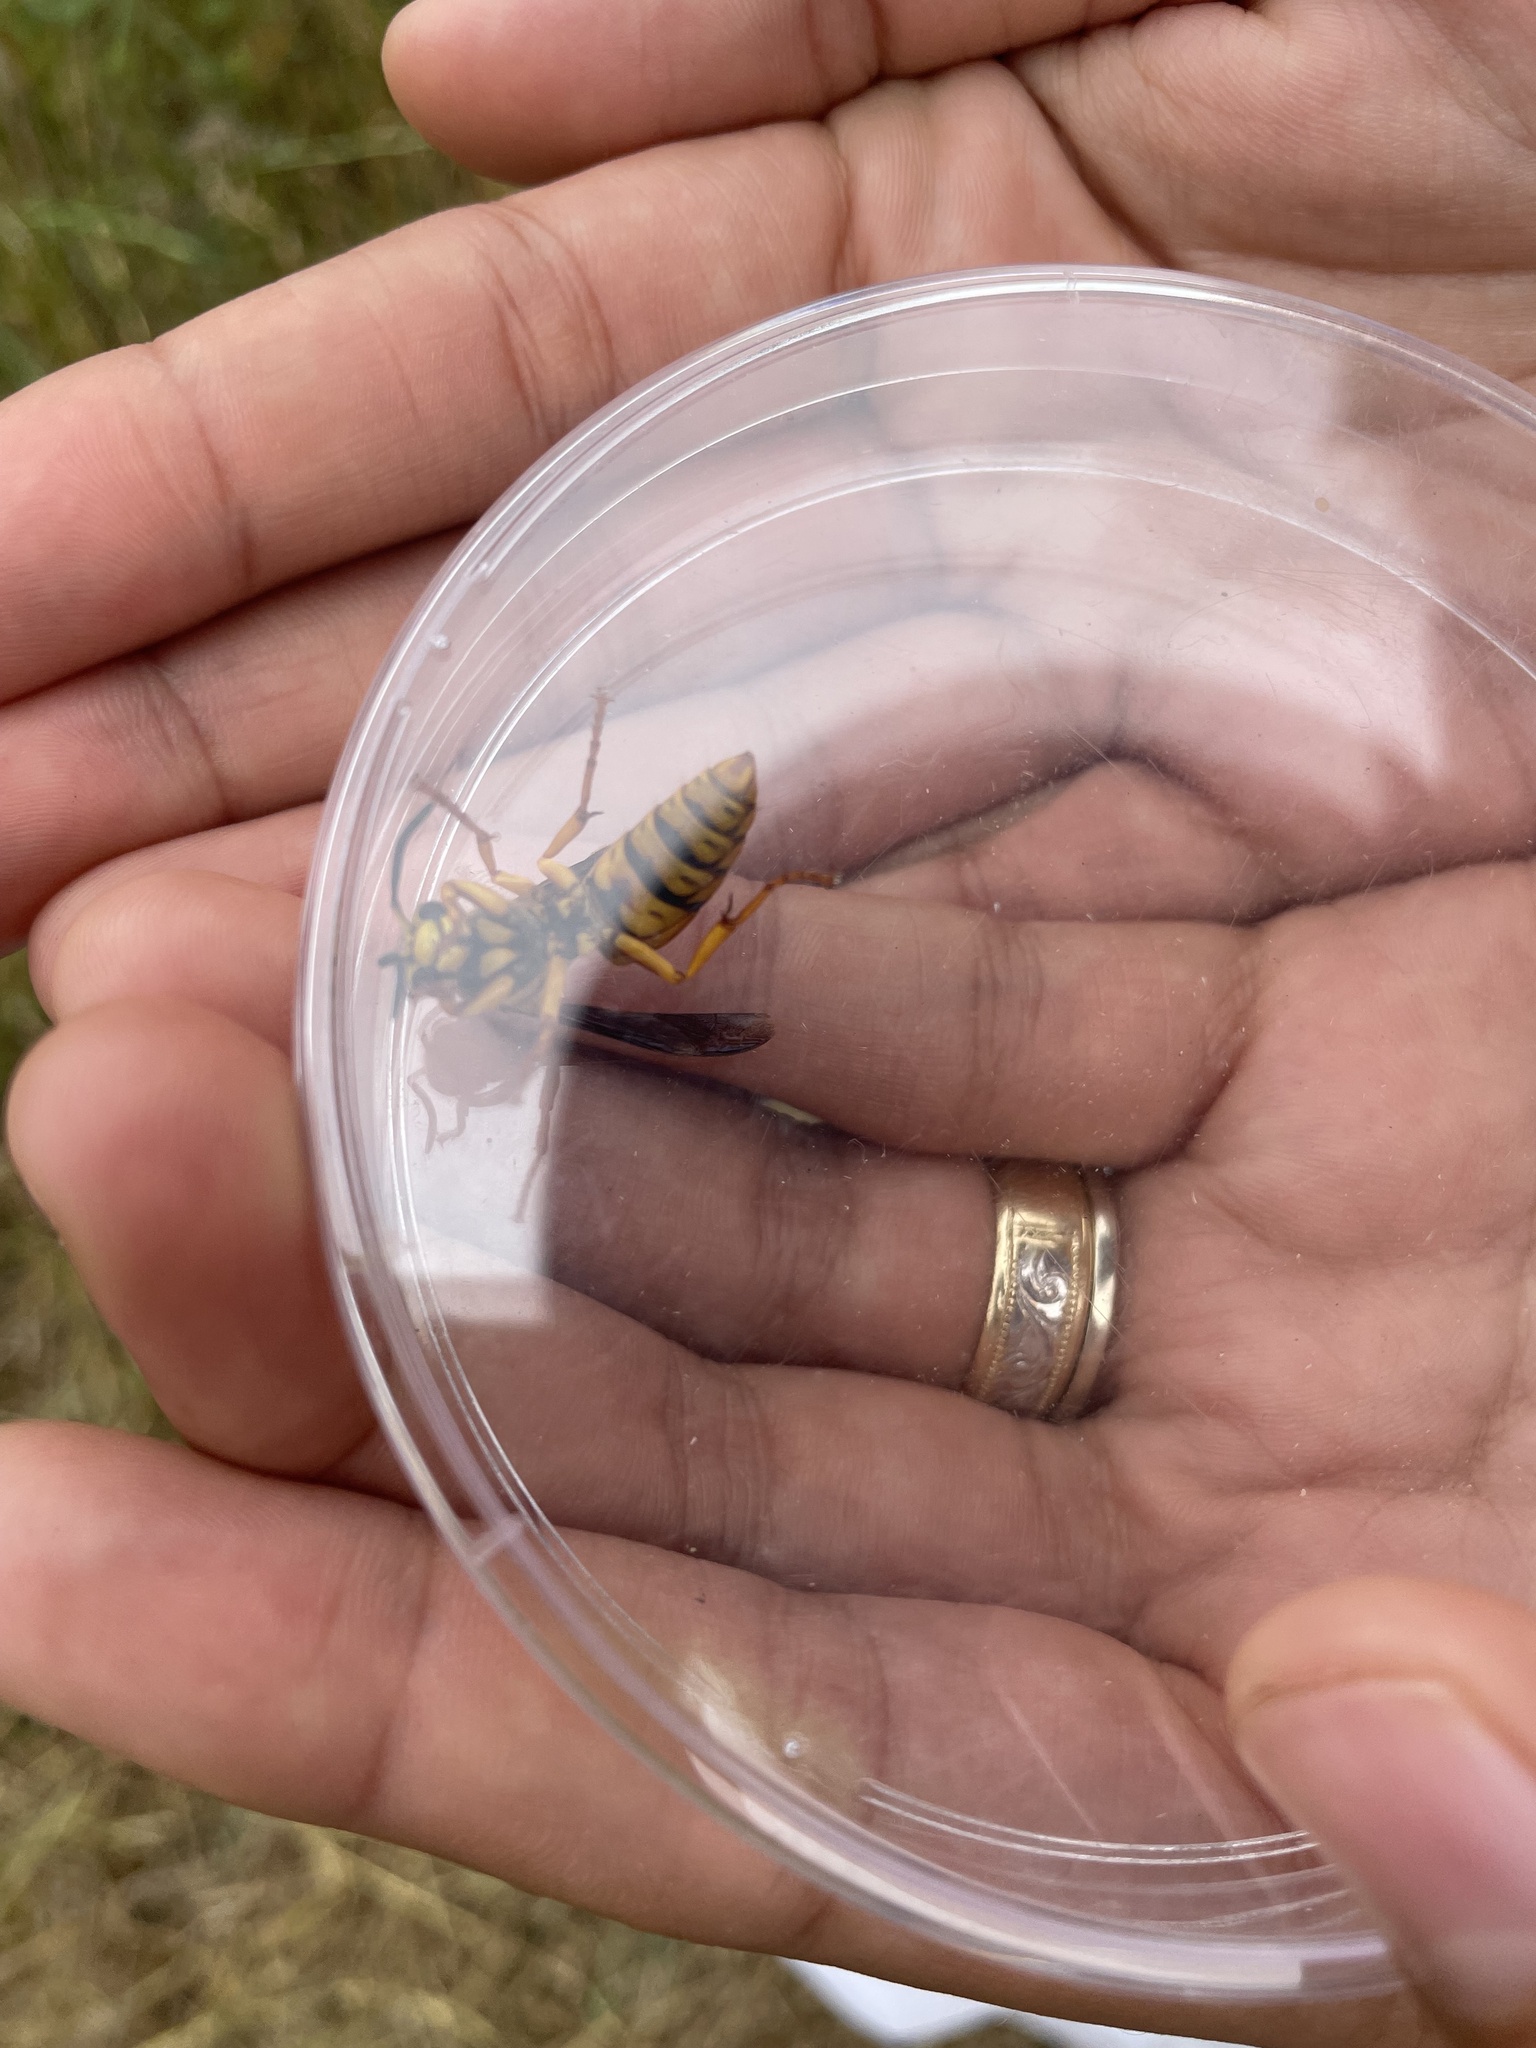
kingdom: Animalia
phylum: Arthropoda
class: Insecta
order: Hymenoptera
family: Vespidae
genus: Vespula
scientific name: Vespula squamosa
